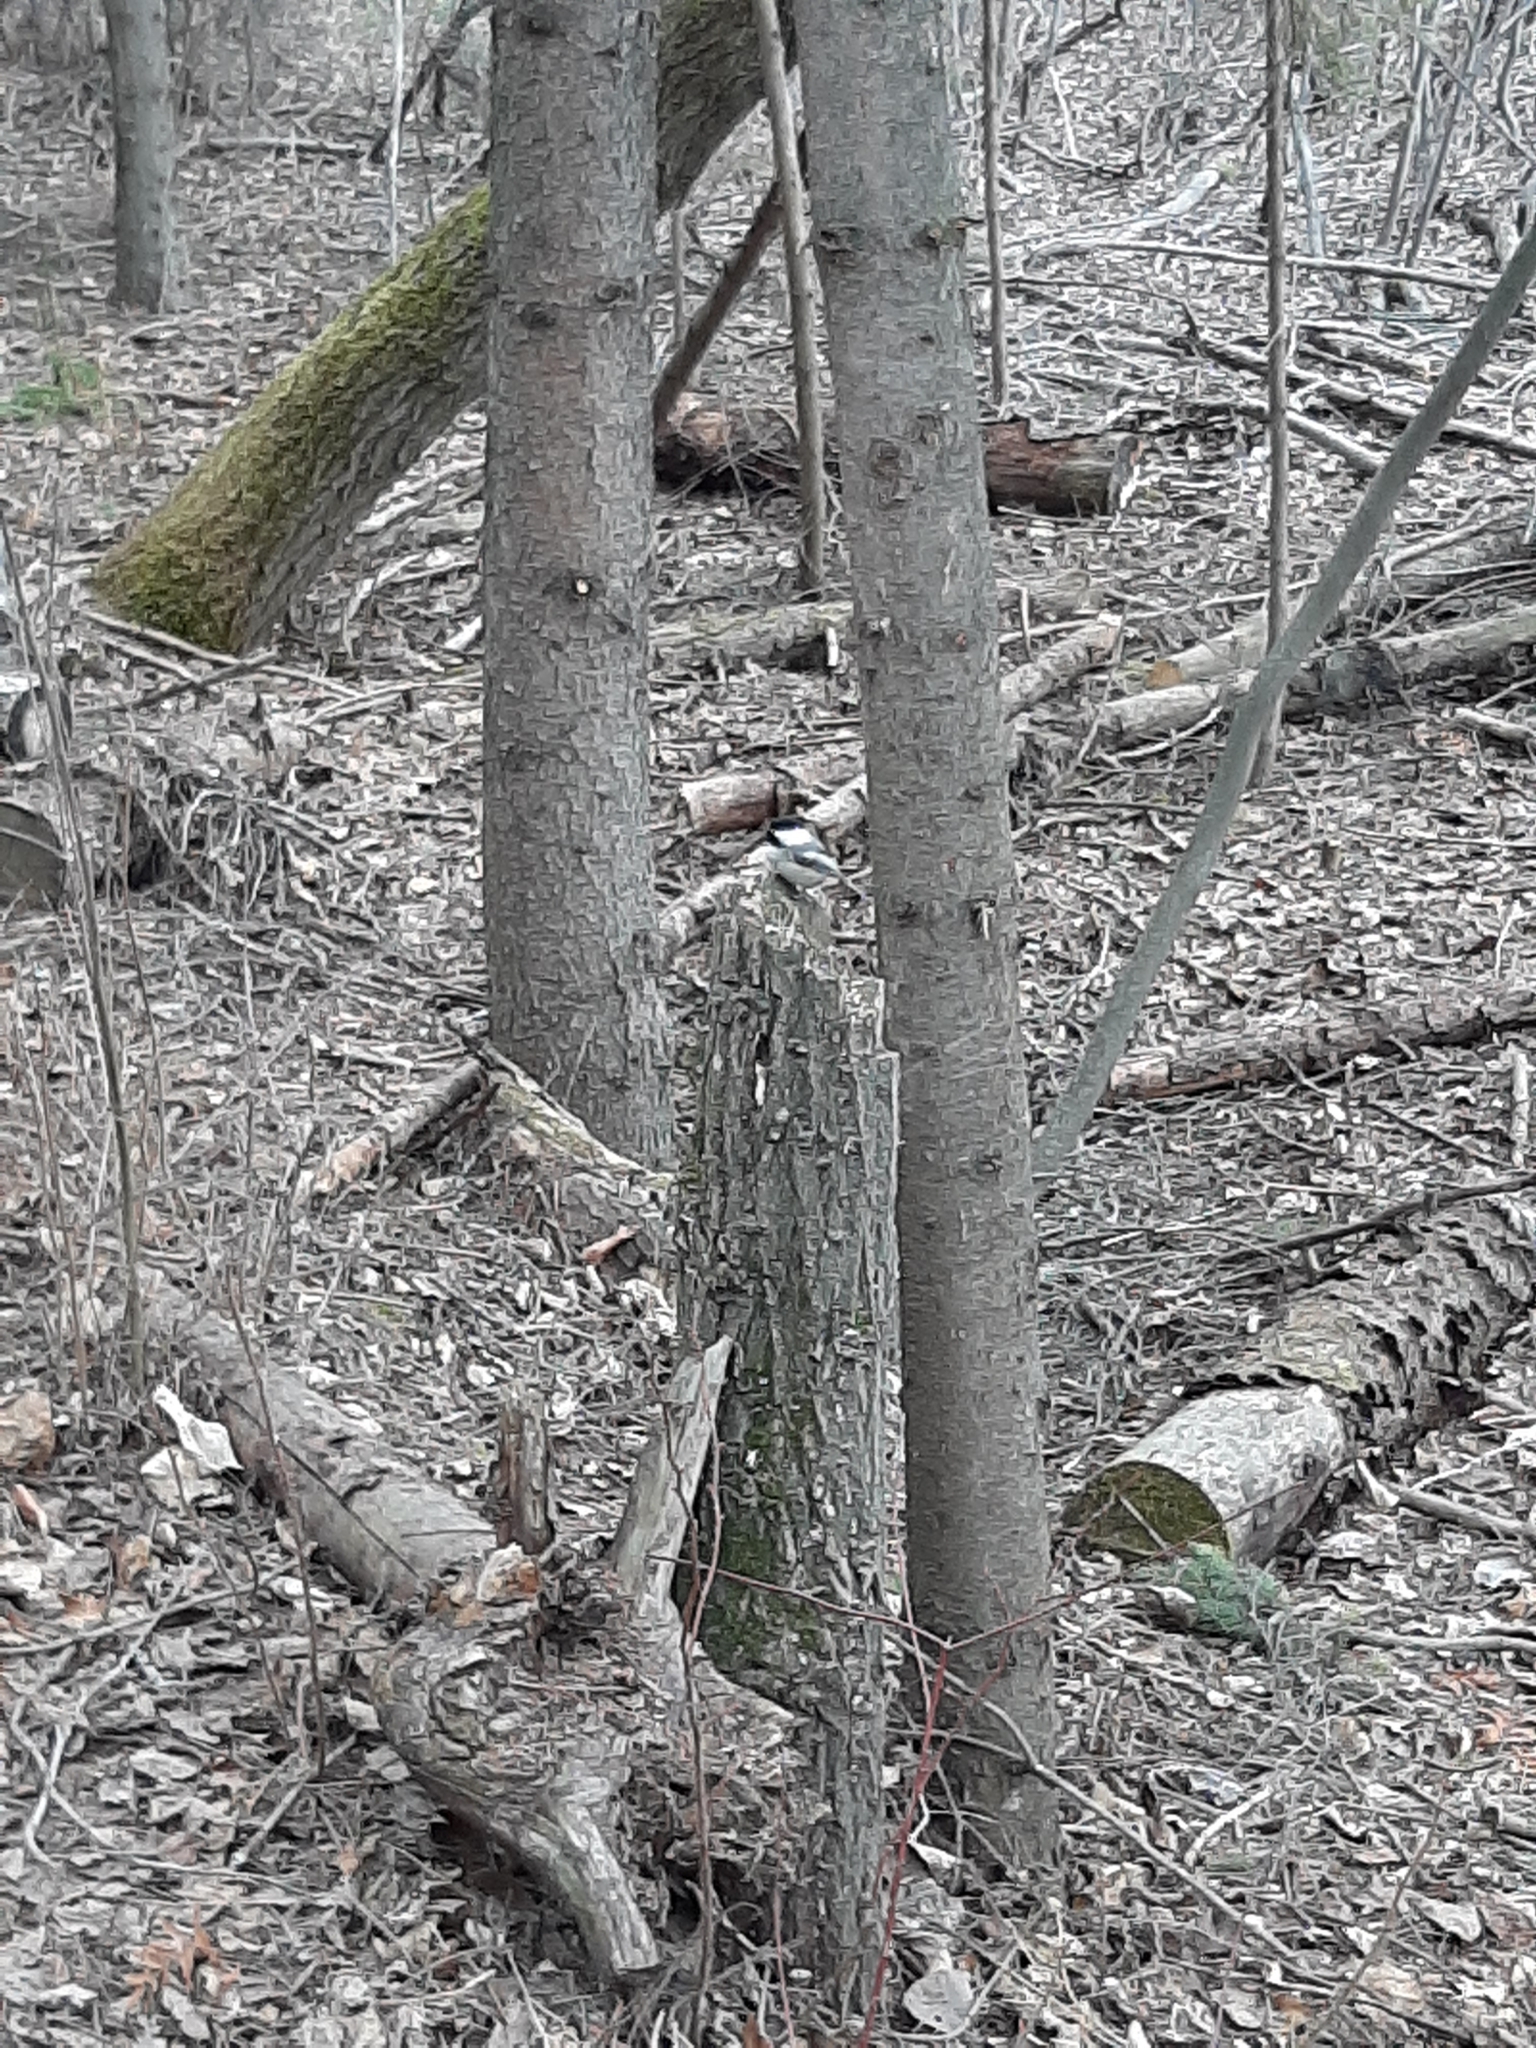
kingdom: Animalia
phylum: Chordata
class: Aves
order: Passeriformes
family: Paridae
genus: Poecile
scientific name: Poecile atricapillus
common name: Black-capped chickadee
